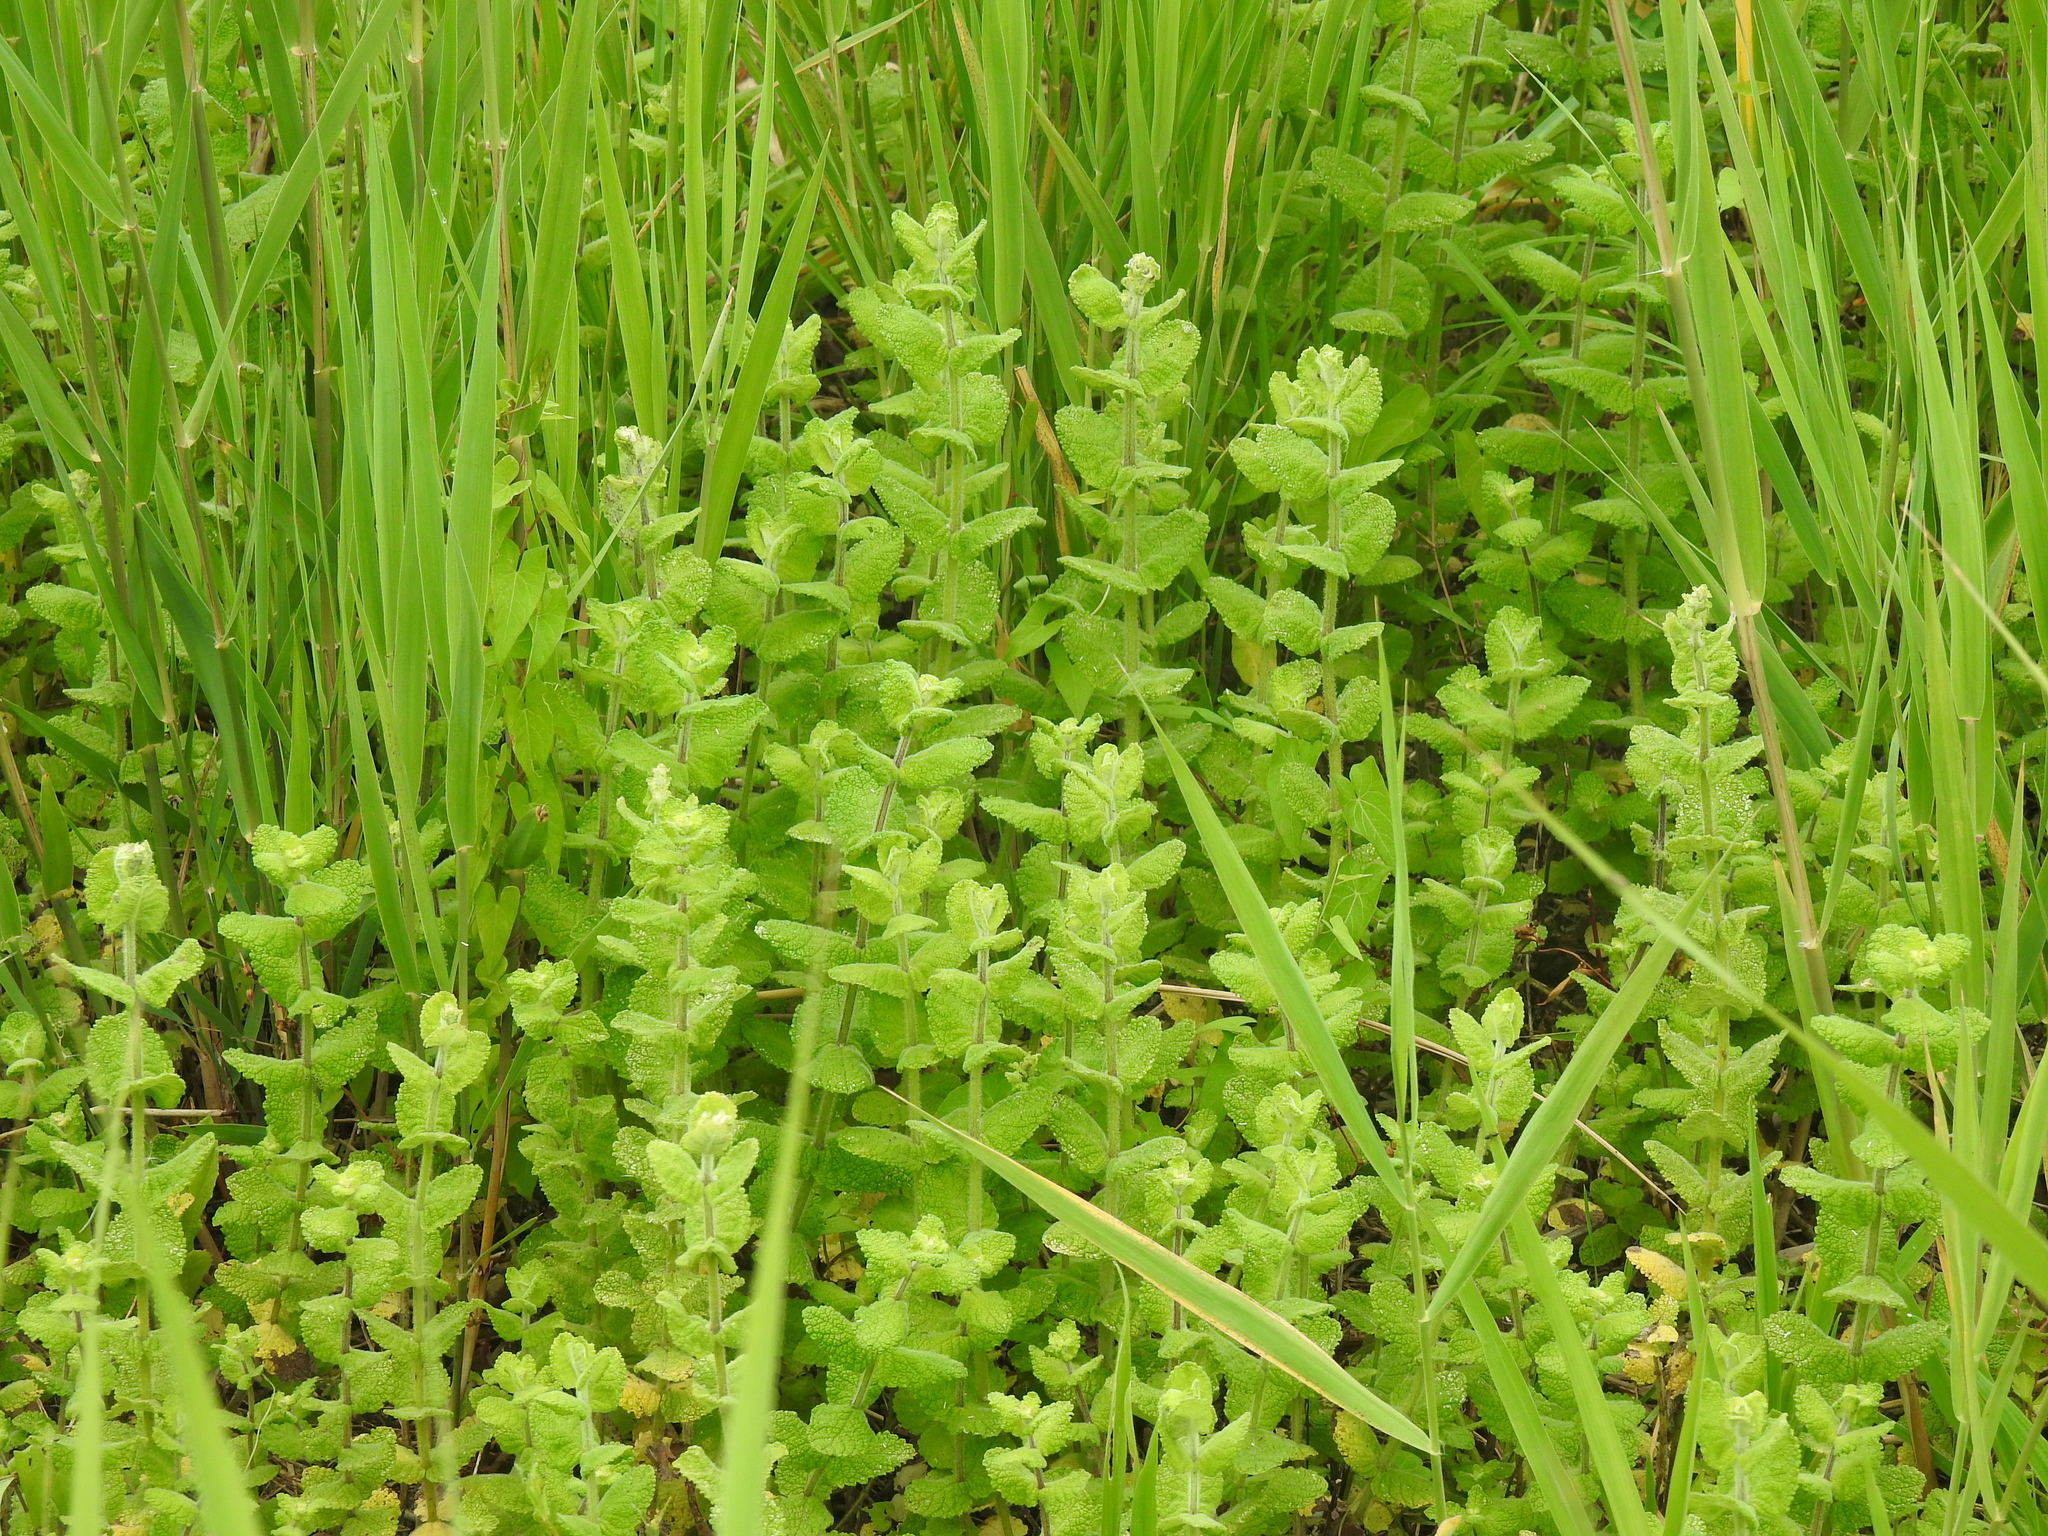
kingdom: Plantae
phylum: Tracheophyta
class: Magnoliopsida
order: Lamiales
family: Lamiaceae
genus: Mentha
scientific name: Mentha suaveolens
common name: Apple mint
